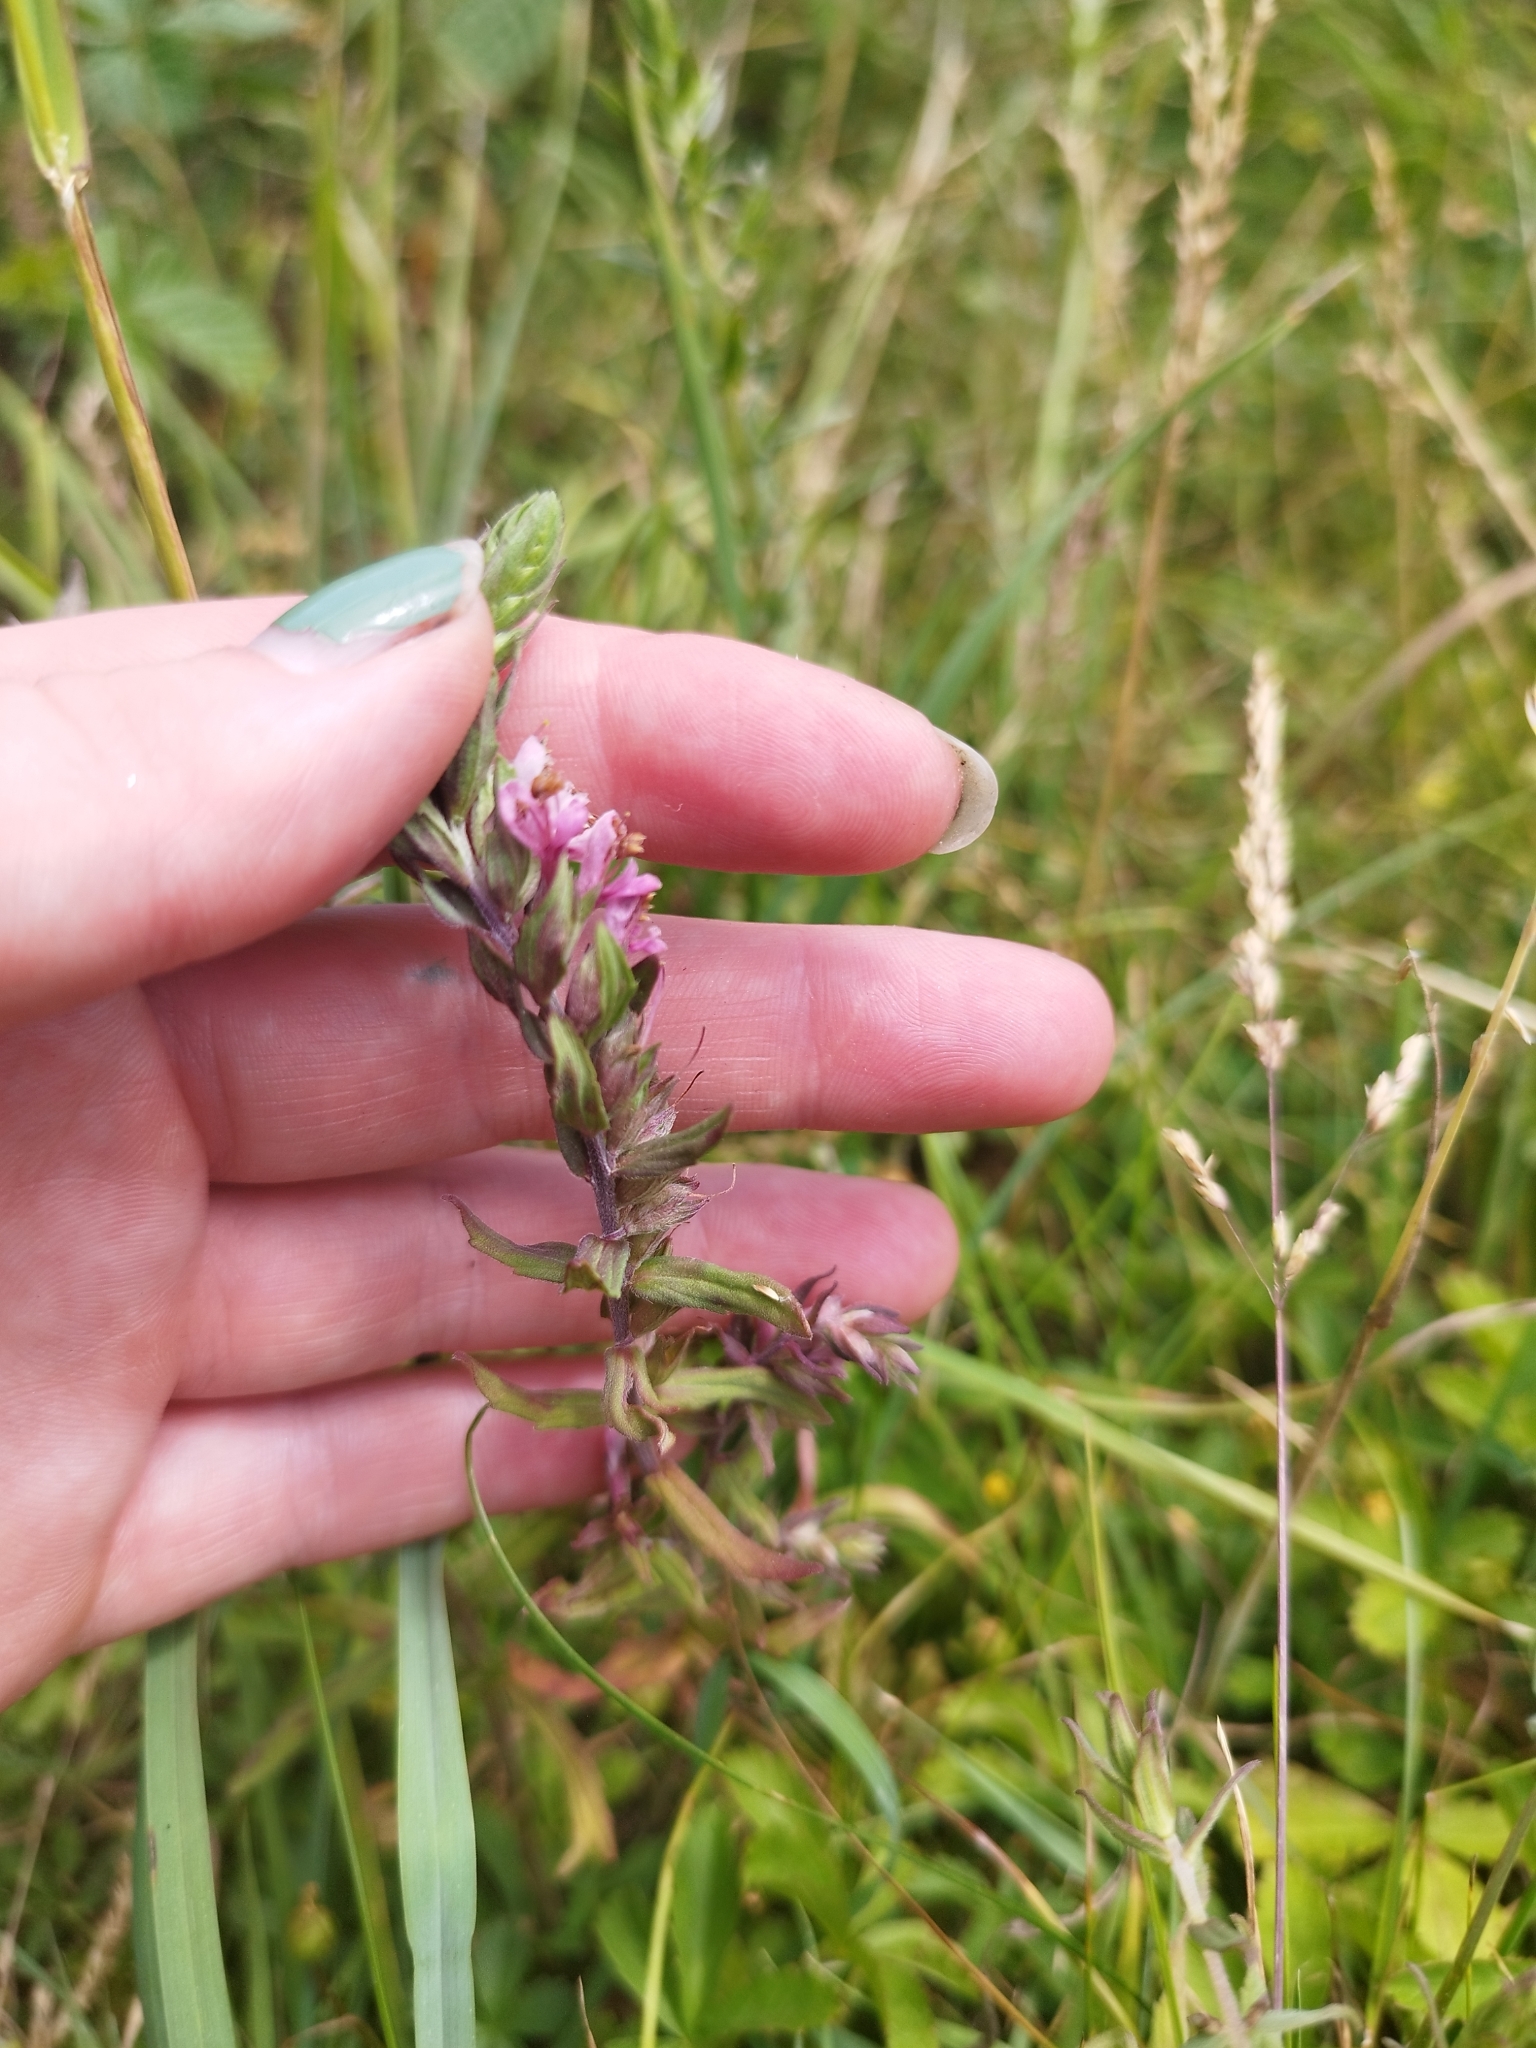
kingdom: Plantae
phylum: Tracheophyta
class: Magnoliopsida
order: Lamiales
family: Orobanchaceae
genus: Odontites
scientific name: Odontites vulgaris
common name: Broomrape
